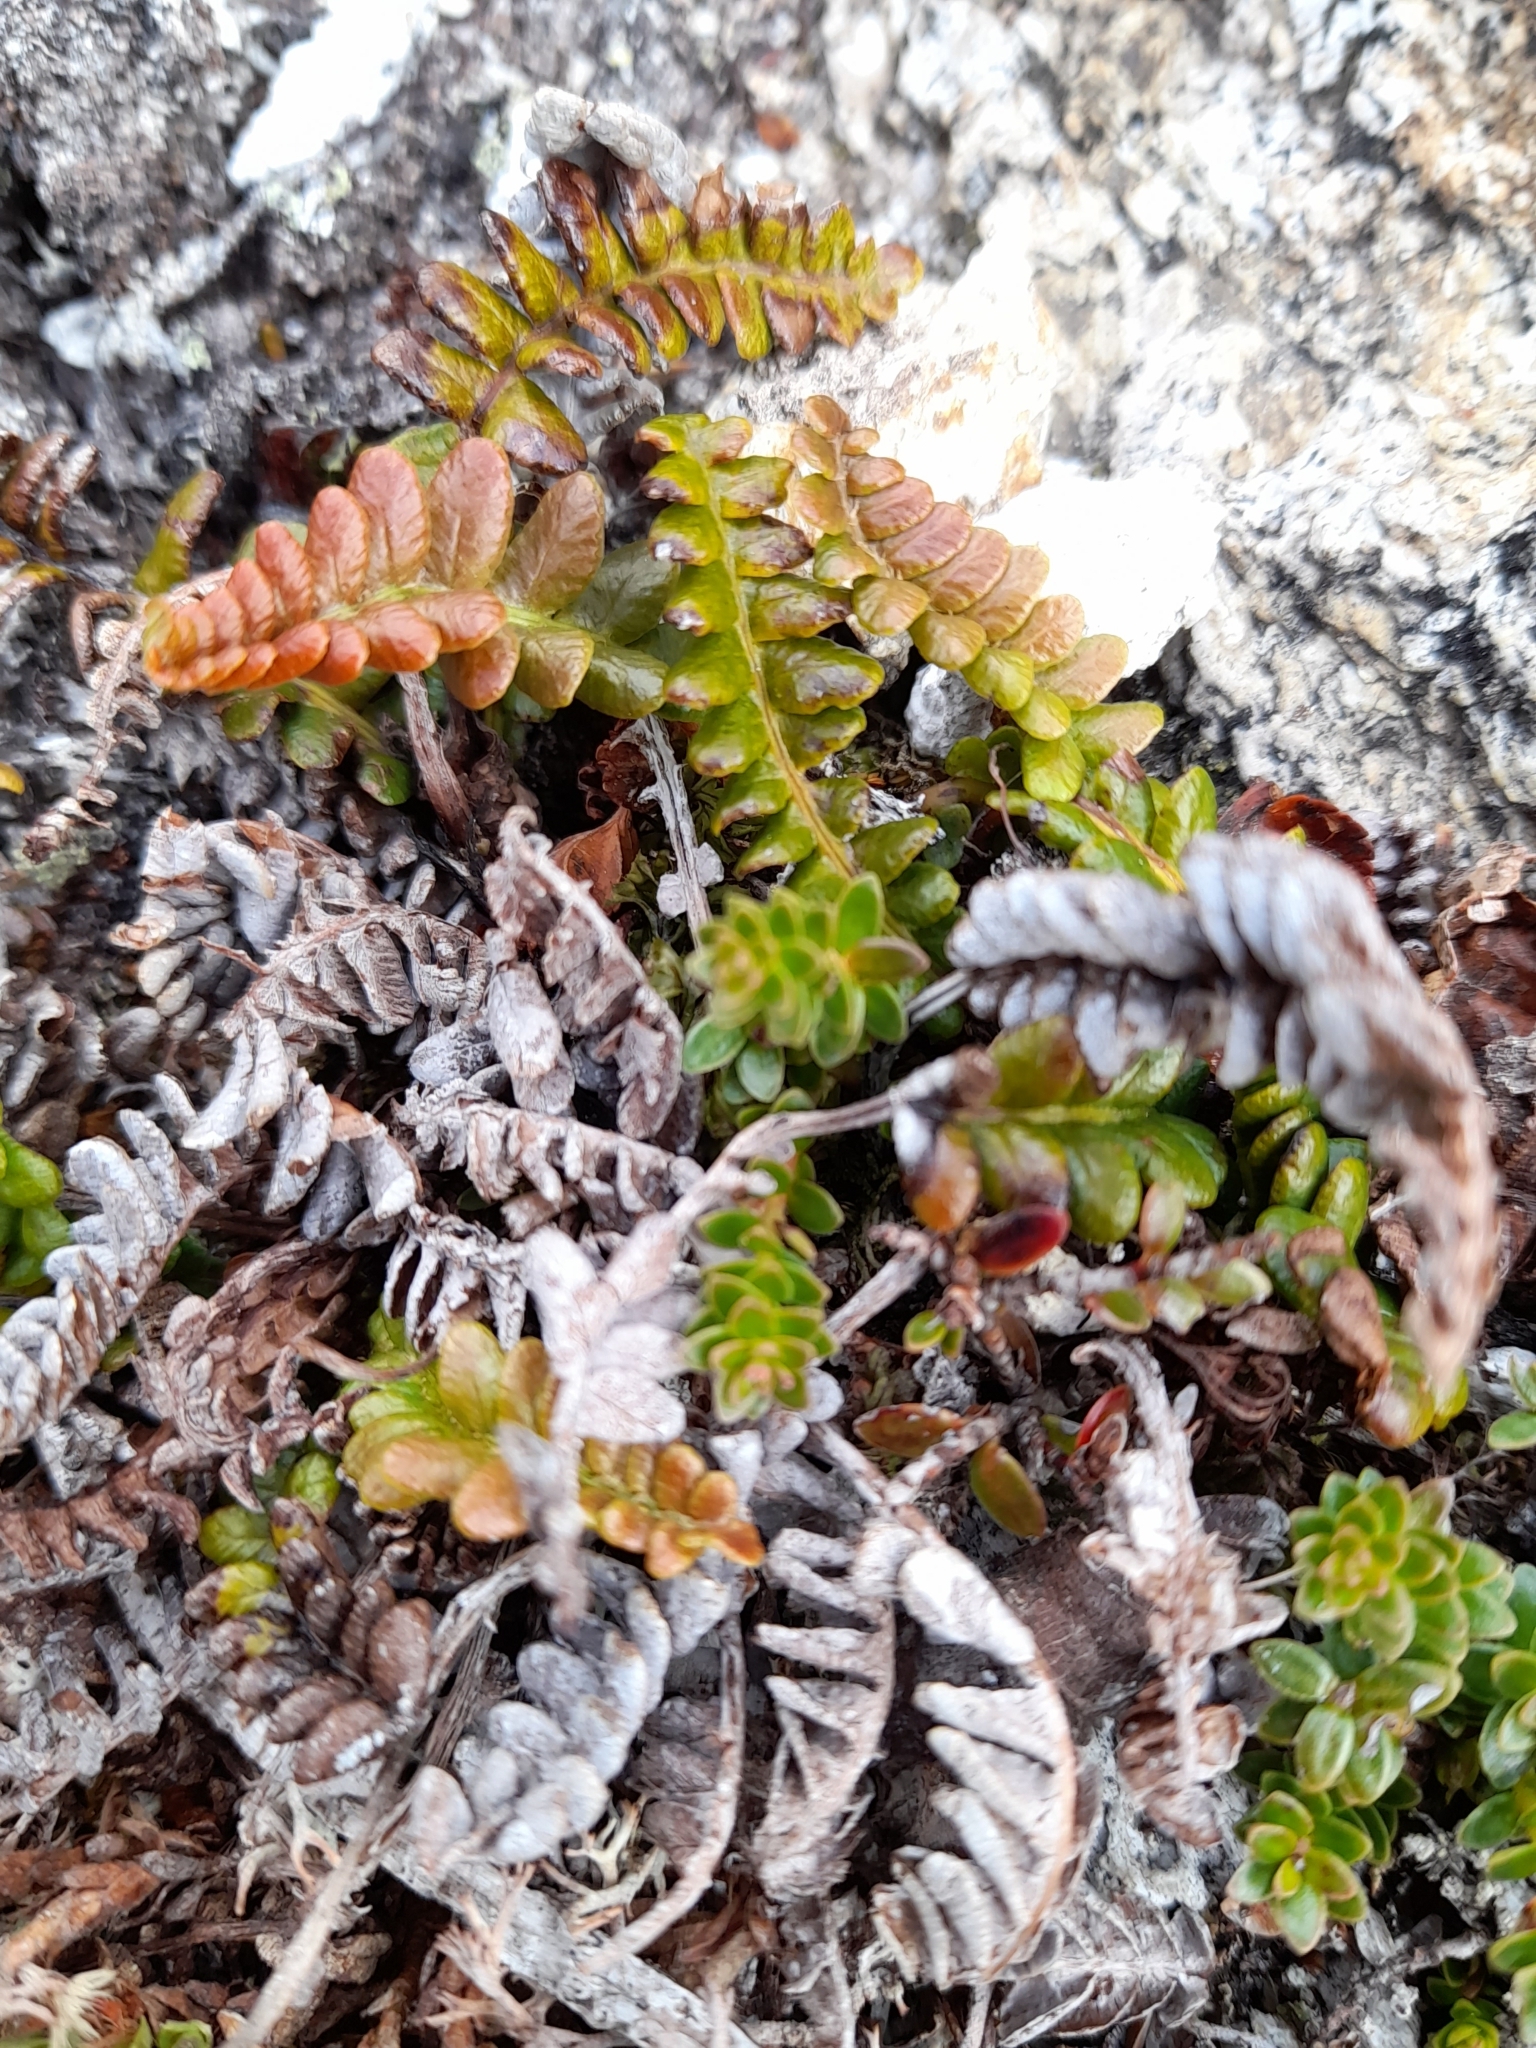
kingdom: Plantae
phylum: Tracheophyta
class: Polypodiopsida
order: Polypodiales
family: Blechnaceae
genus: Austroblechnum
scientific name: Austroblechnum penna-marina
